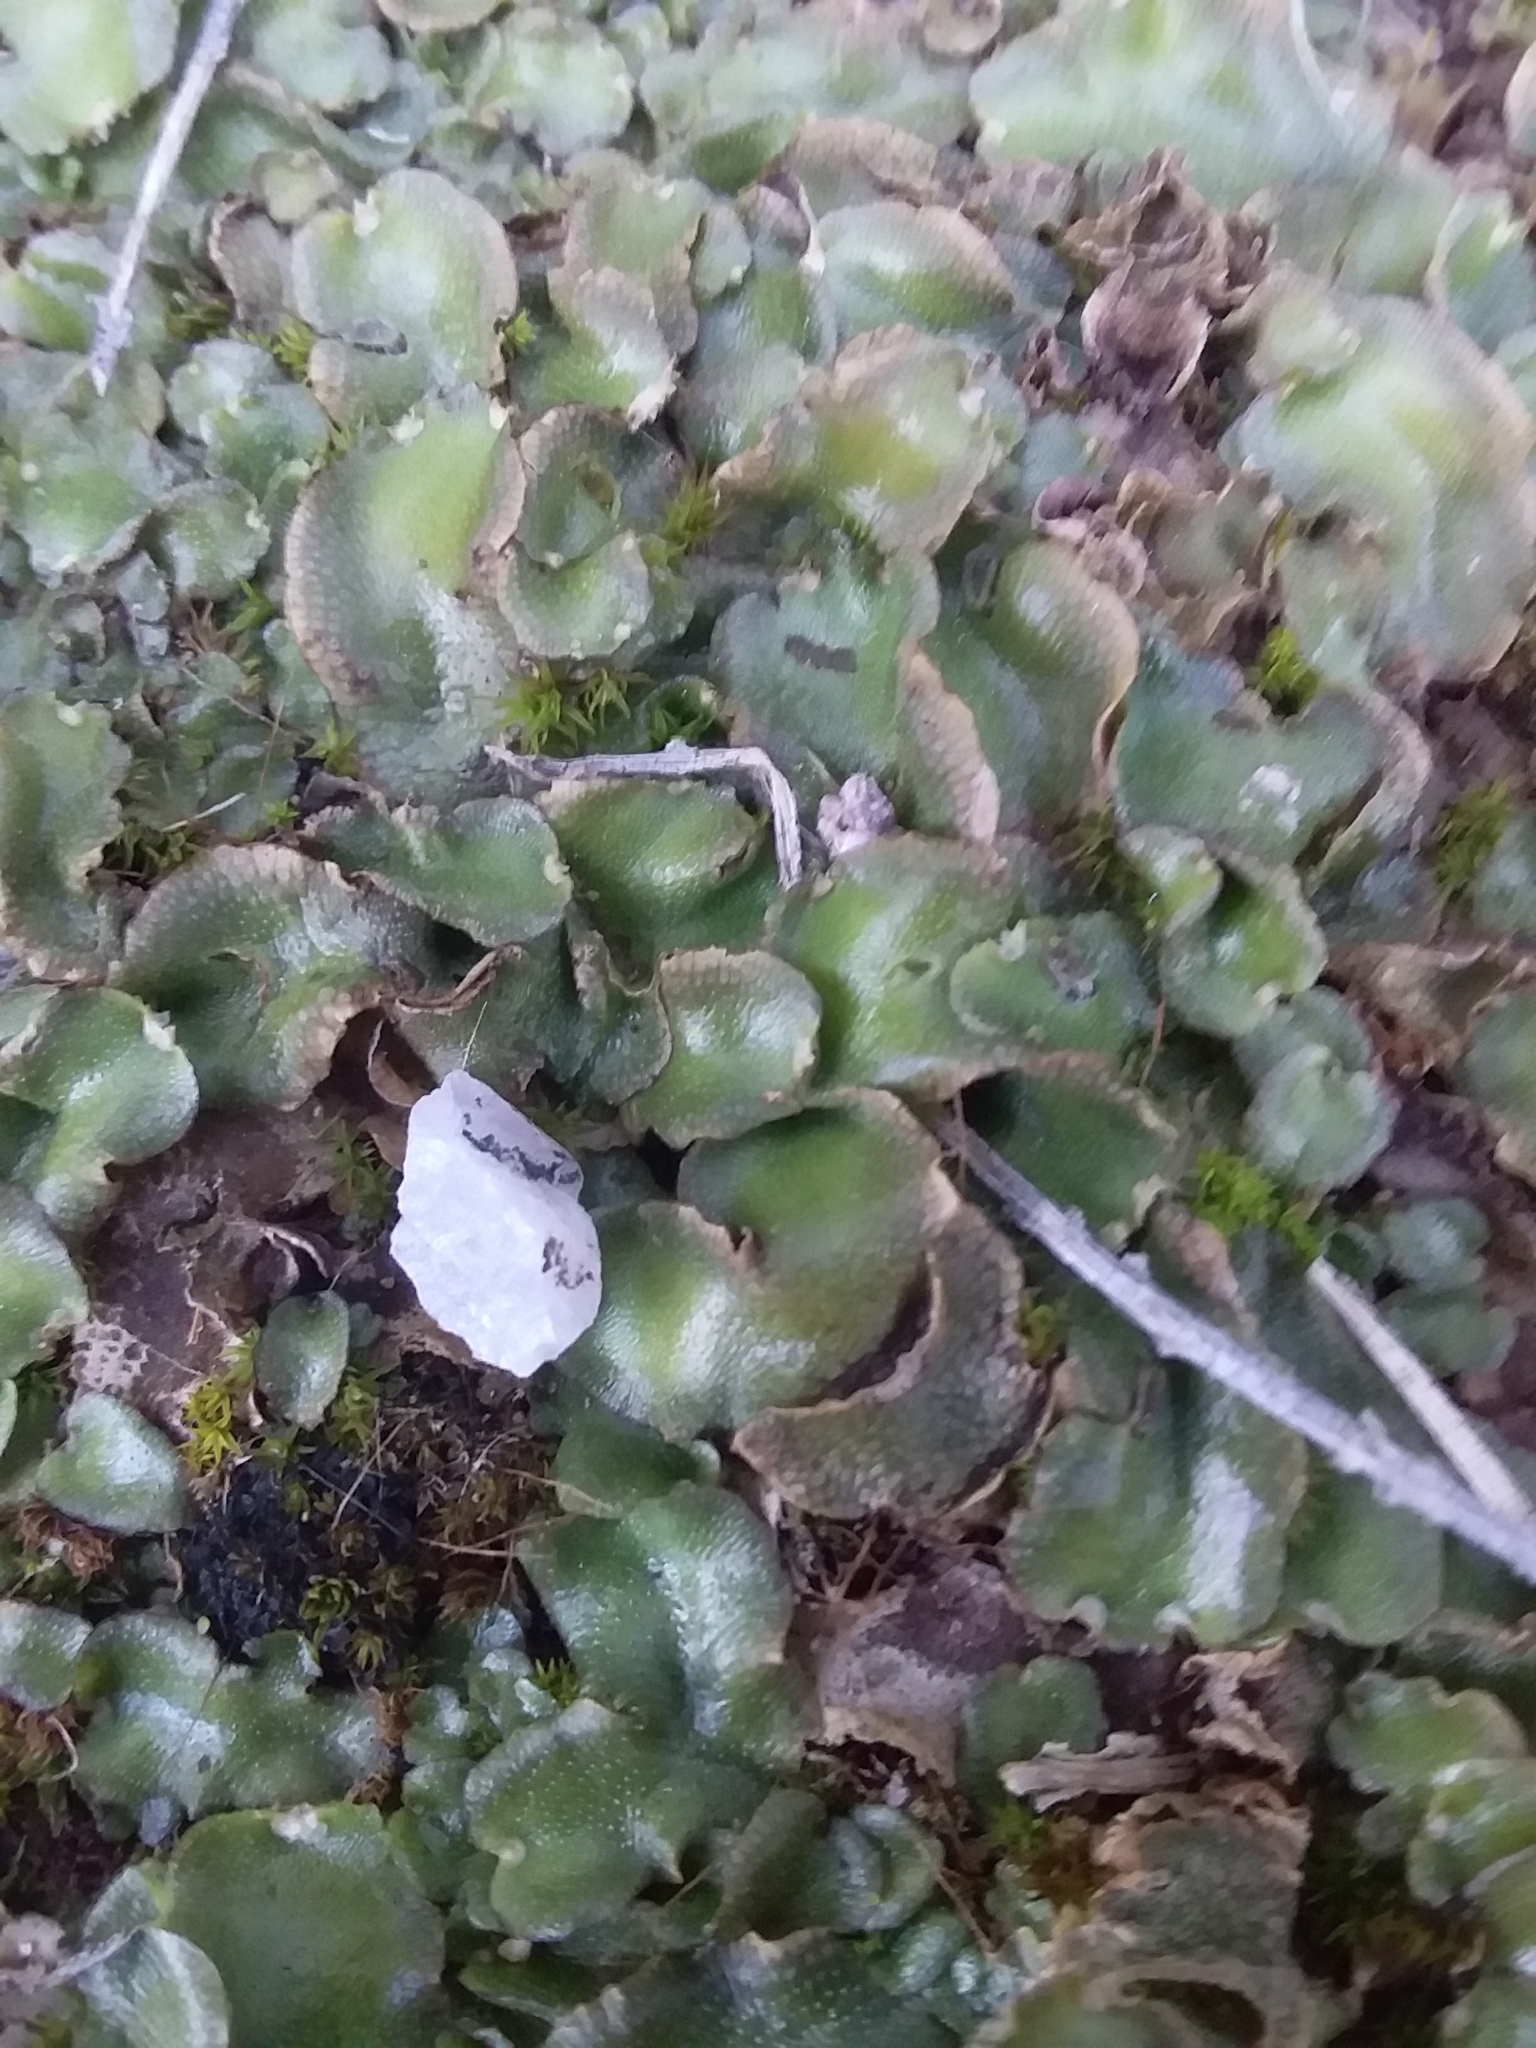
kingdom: Plantae
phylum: Marchantiophyta
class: Marchantiopsida
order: Lunulariales
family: Lunulariaceae
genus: Lunularia
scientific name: Lunularia cruciata
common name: Crescent-cup liverwort
